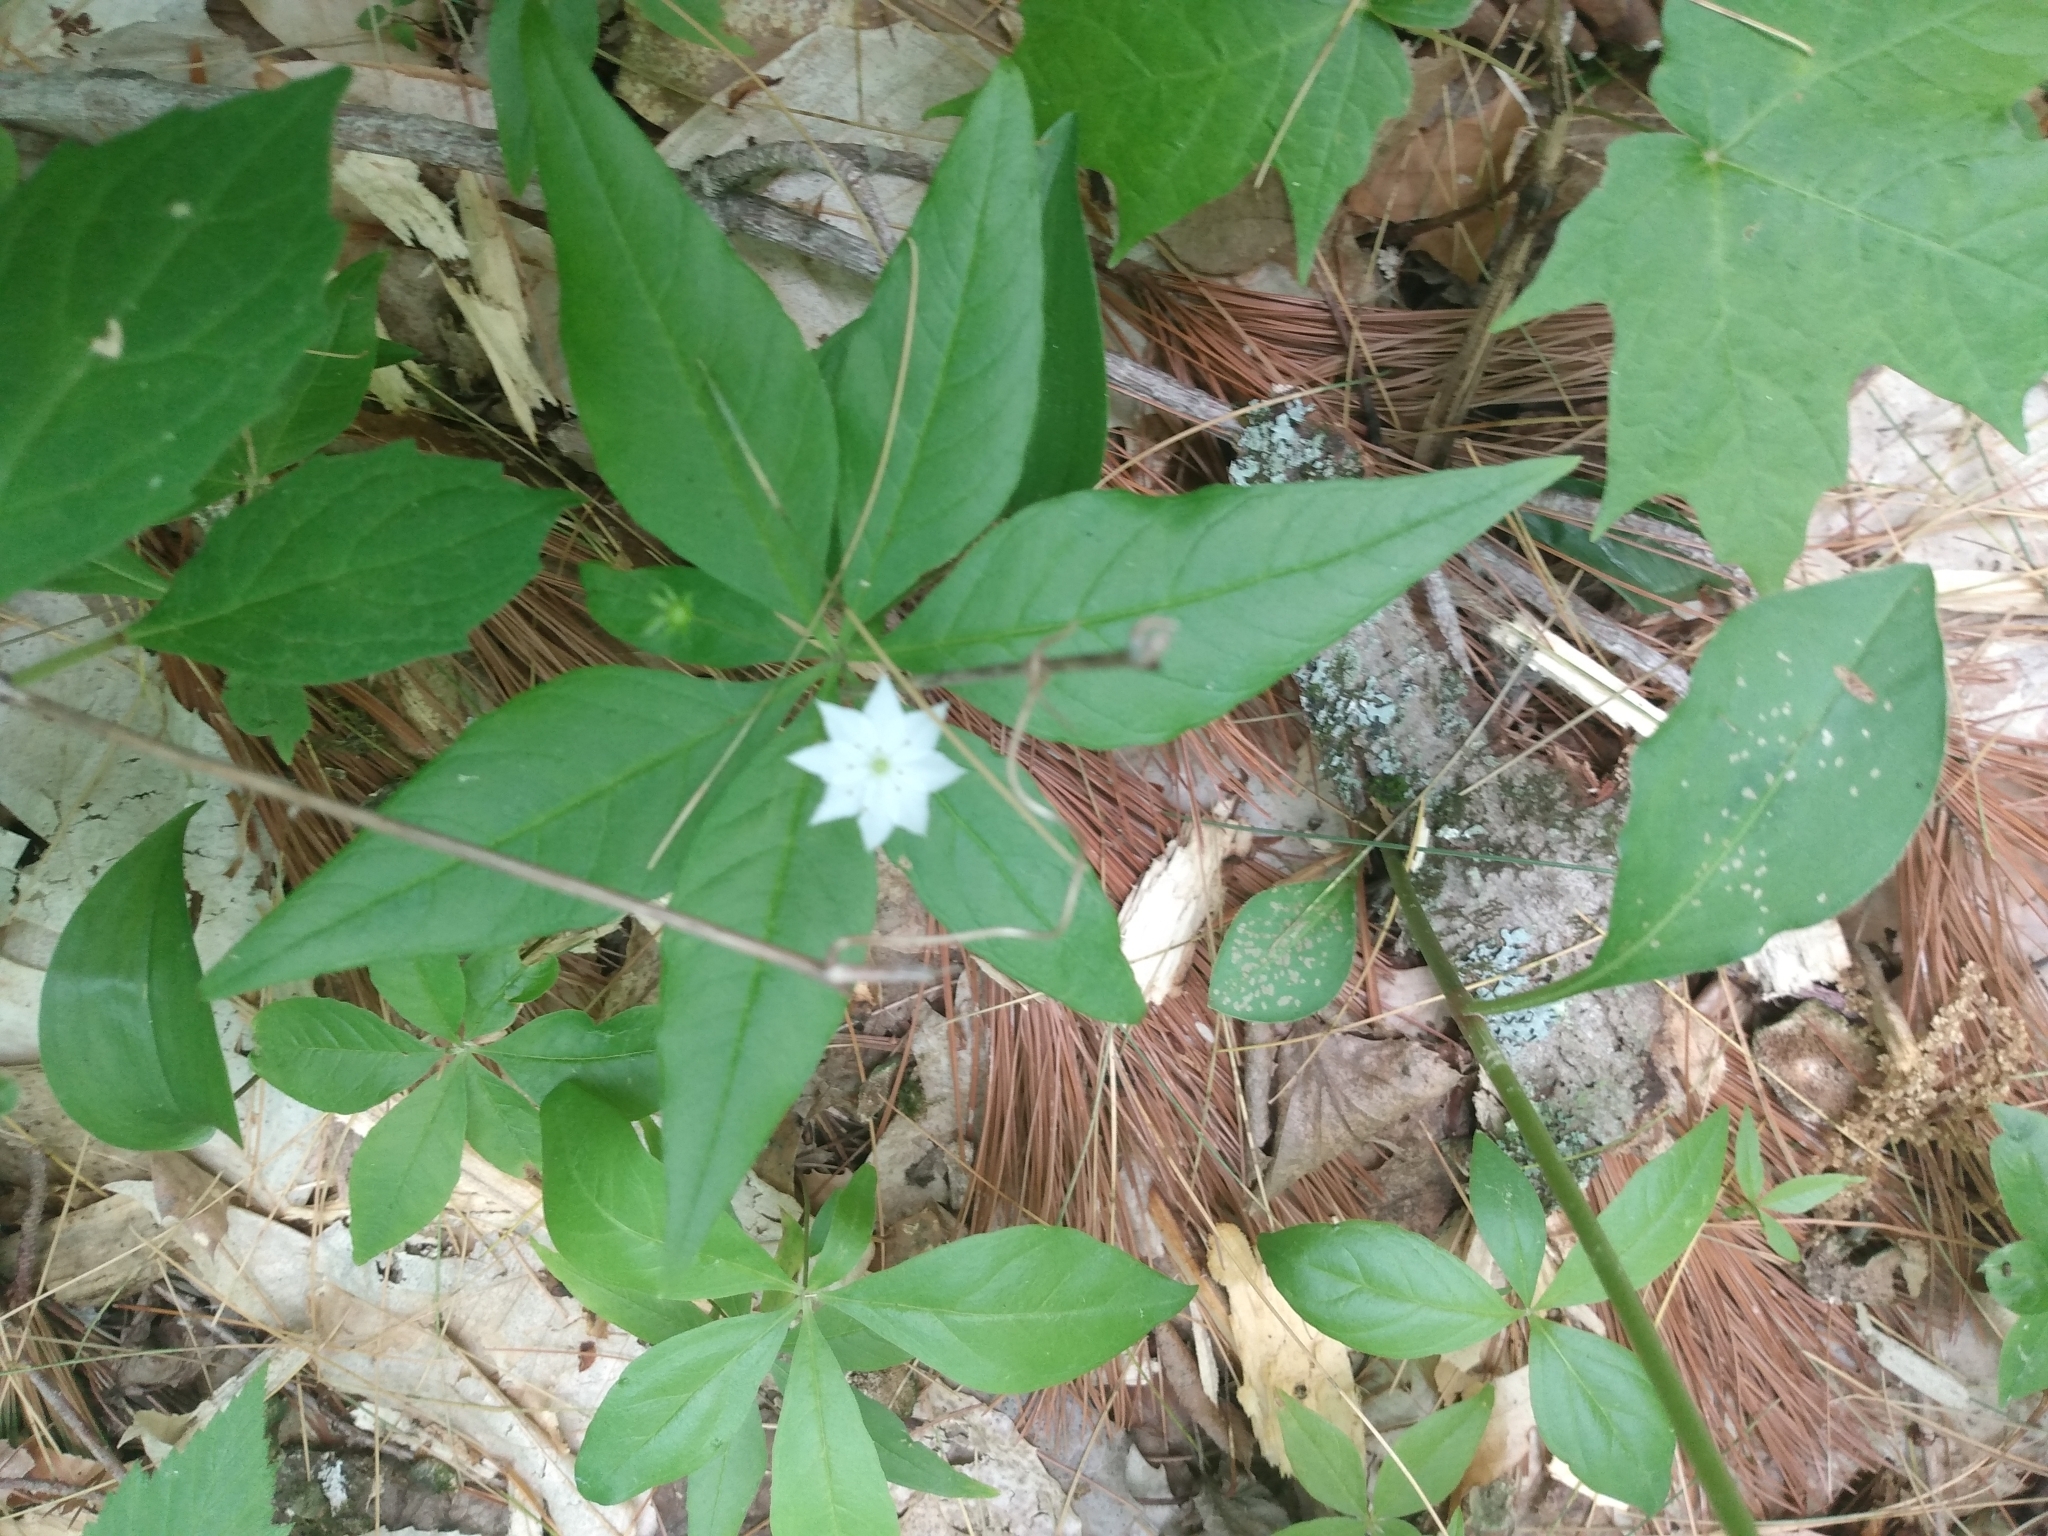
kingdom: Plantae
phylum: Tracheophyta
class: Magnoliopsida
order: Ericales
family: Primulaceae
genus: Lysimachia
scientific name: Lysimachia borealis
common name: American starflower
